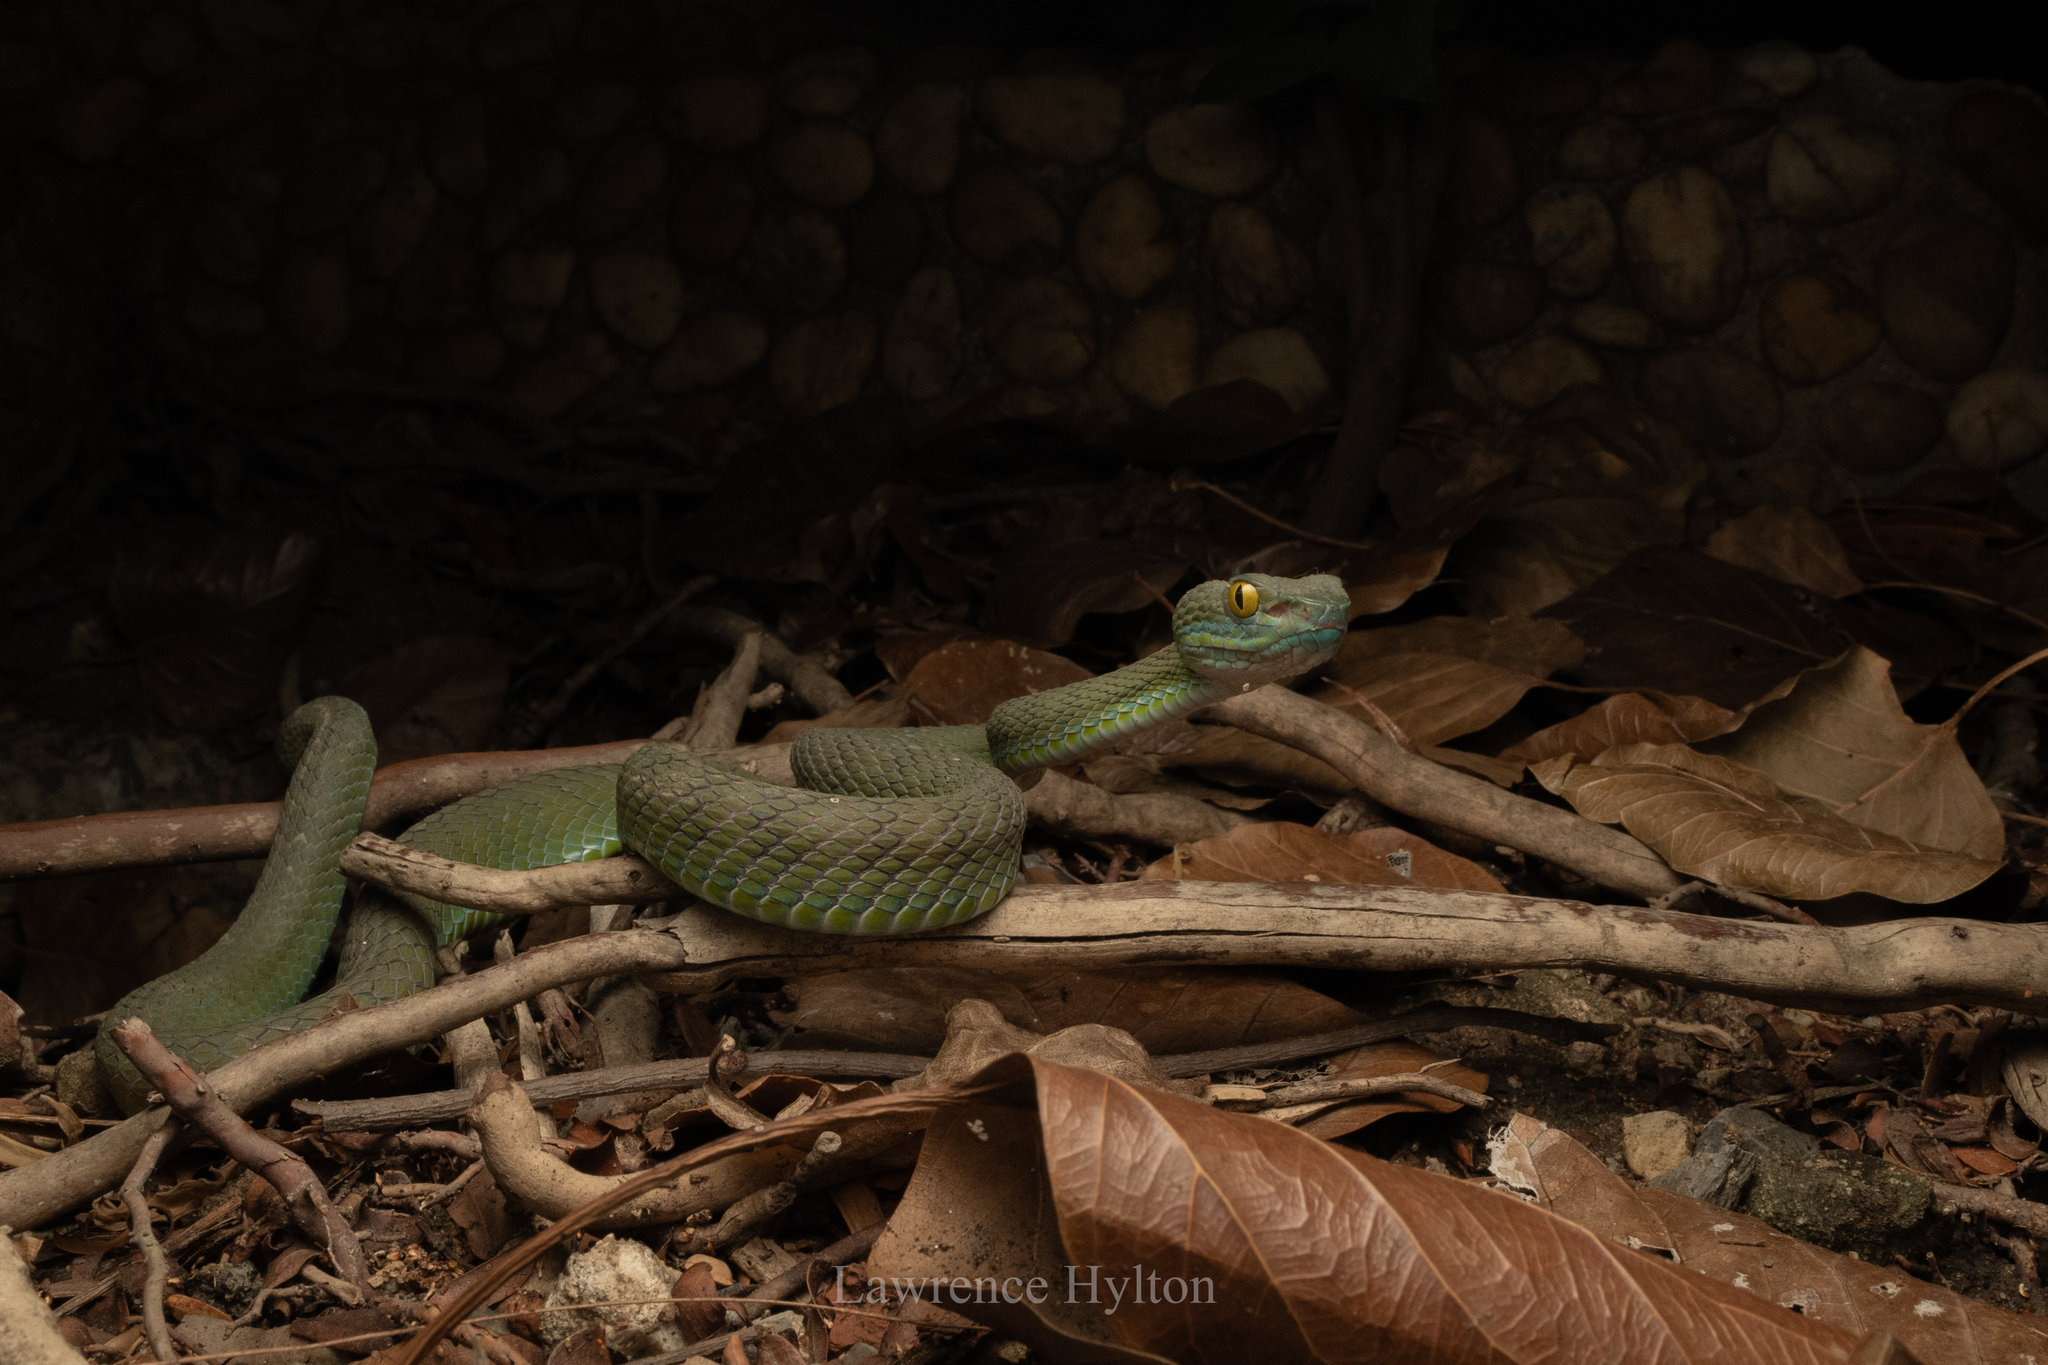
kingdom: Animalia
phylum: Chordata
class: Squamata
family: Viperidae
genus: Trimeresurus
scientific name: Trimeresurus macrops
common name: Kramer's pit viper
